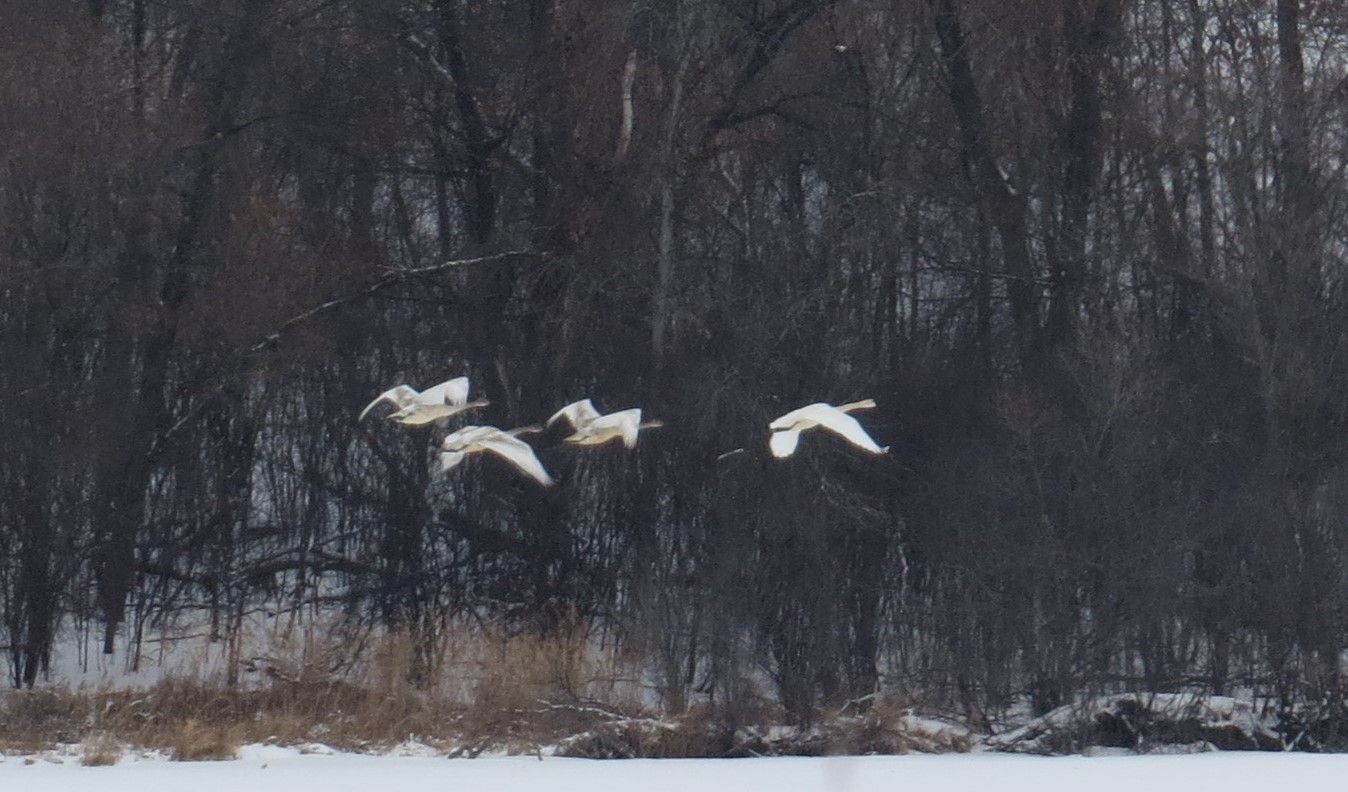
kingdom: Animalia
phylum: Chordata
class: Aves
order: Anseriformes
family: Anatidae
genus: Cygnus
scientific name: Cygnus buccinator
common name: Trumpeter swan
